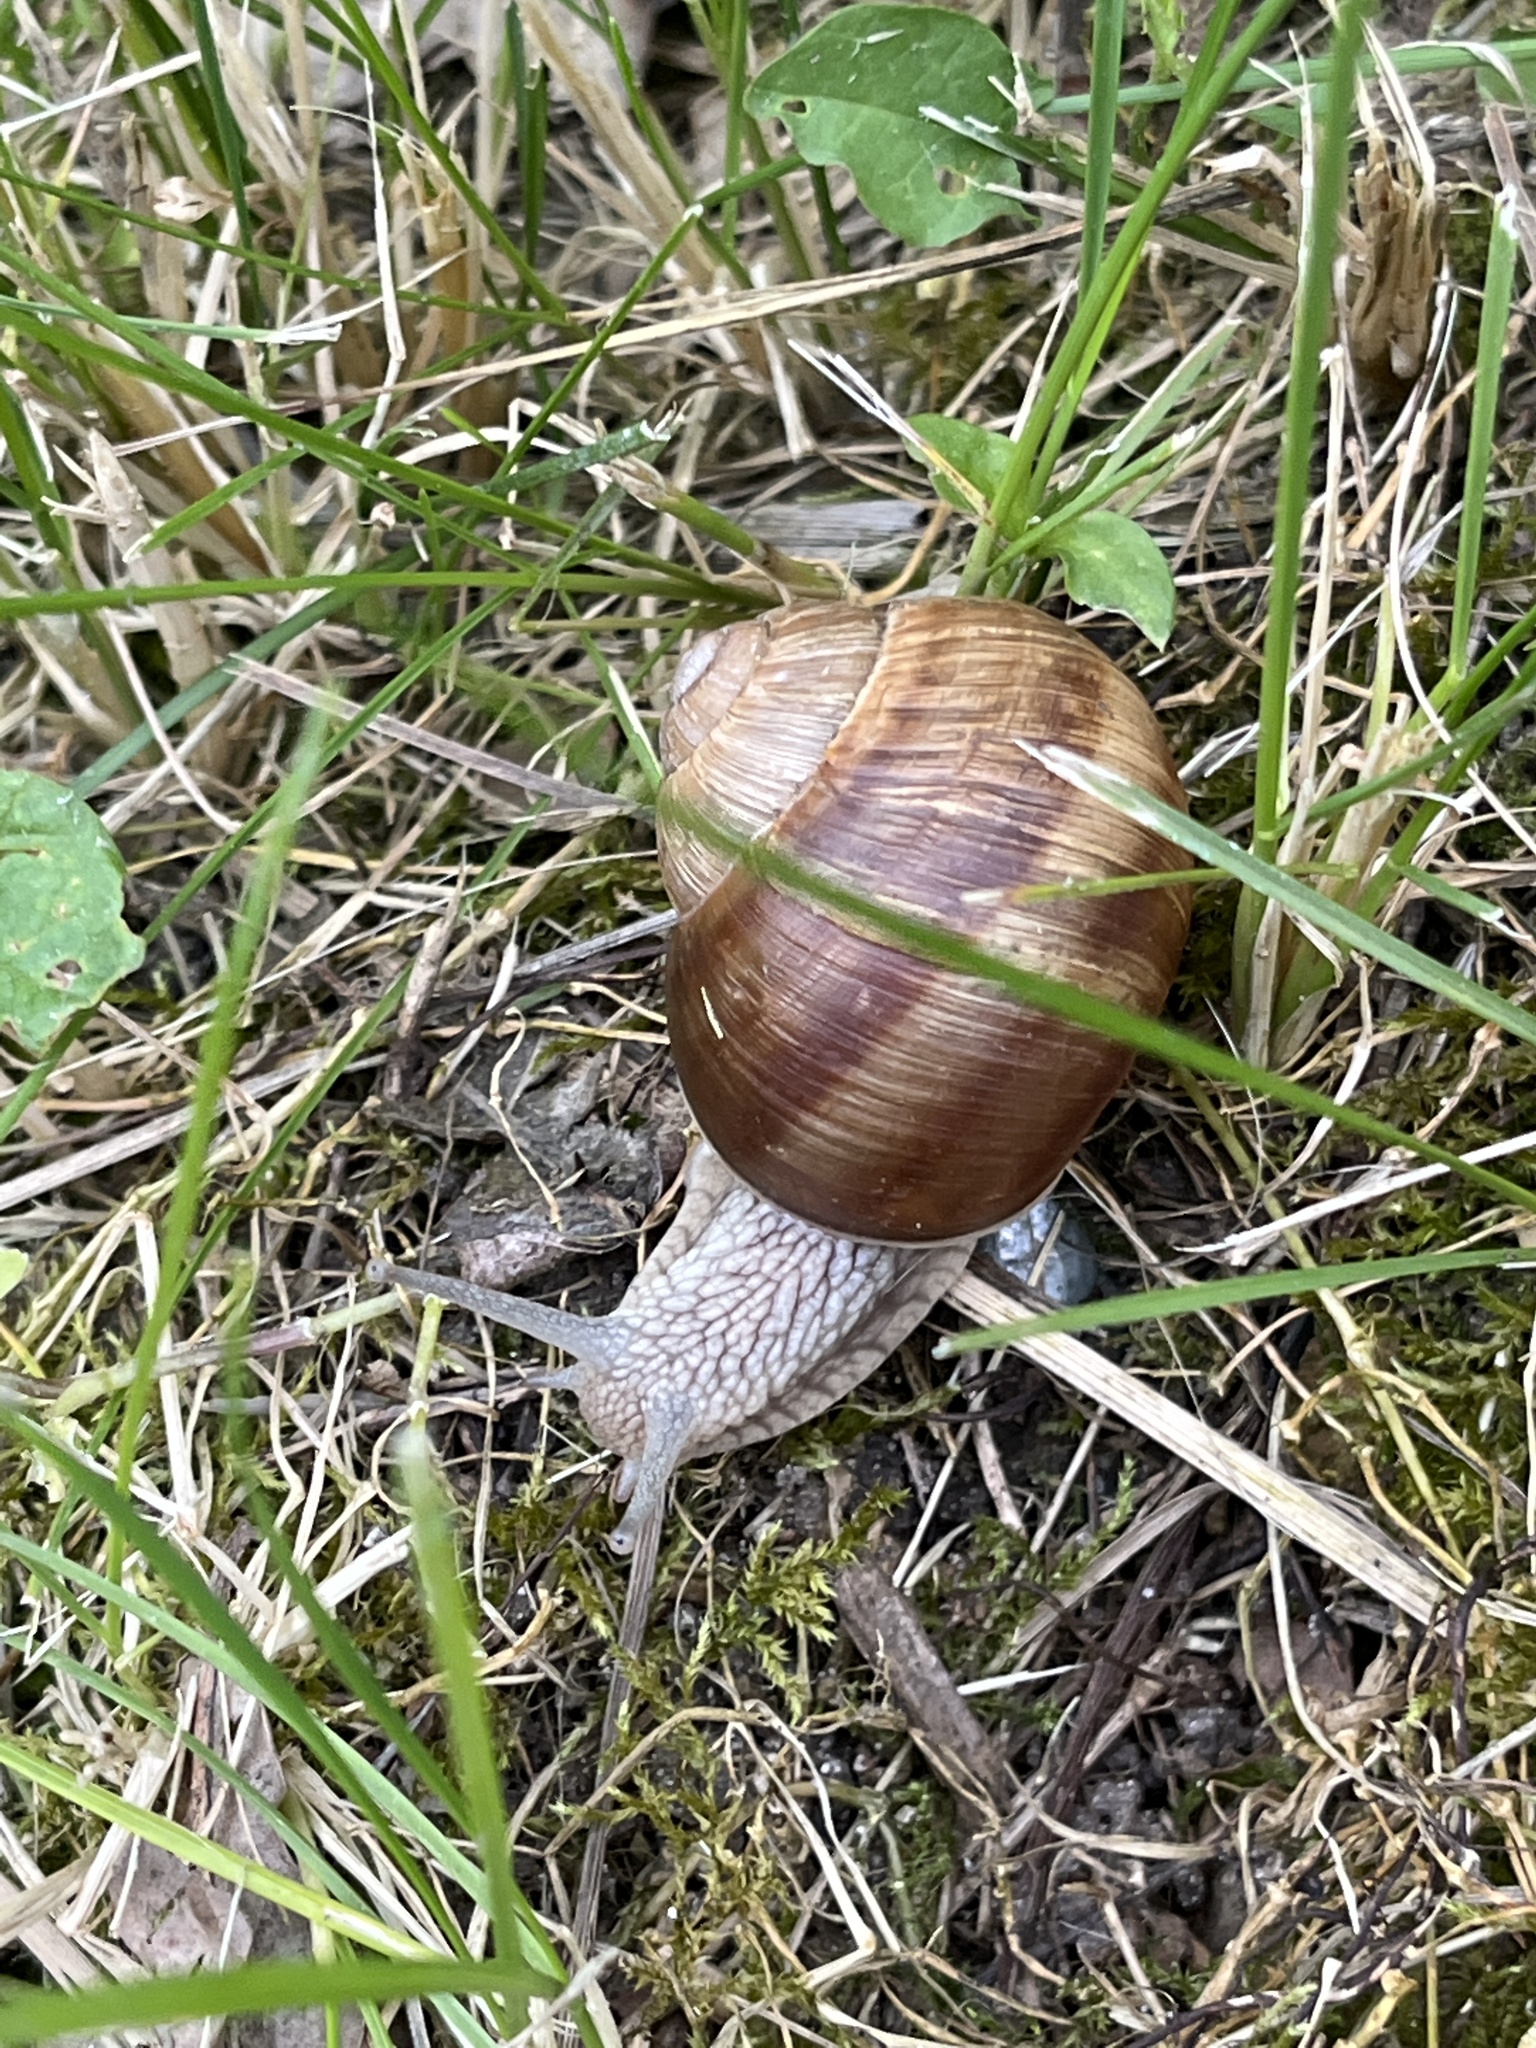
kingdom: Animalia
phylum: Mollusca
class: Gastropoda
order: Stylommatophora
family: Helicidae
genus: Helix
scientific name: Helix pomatia
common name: Roman snail
